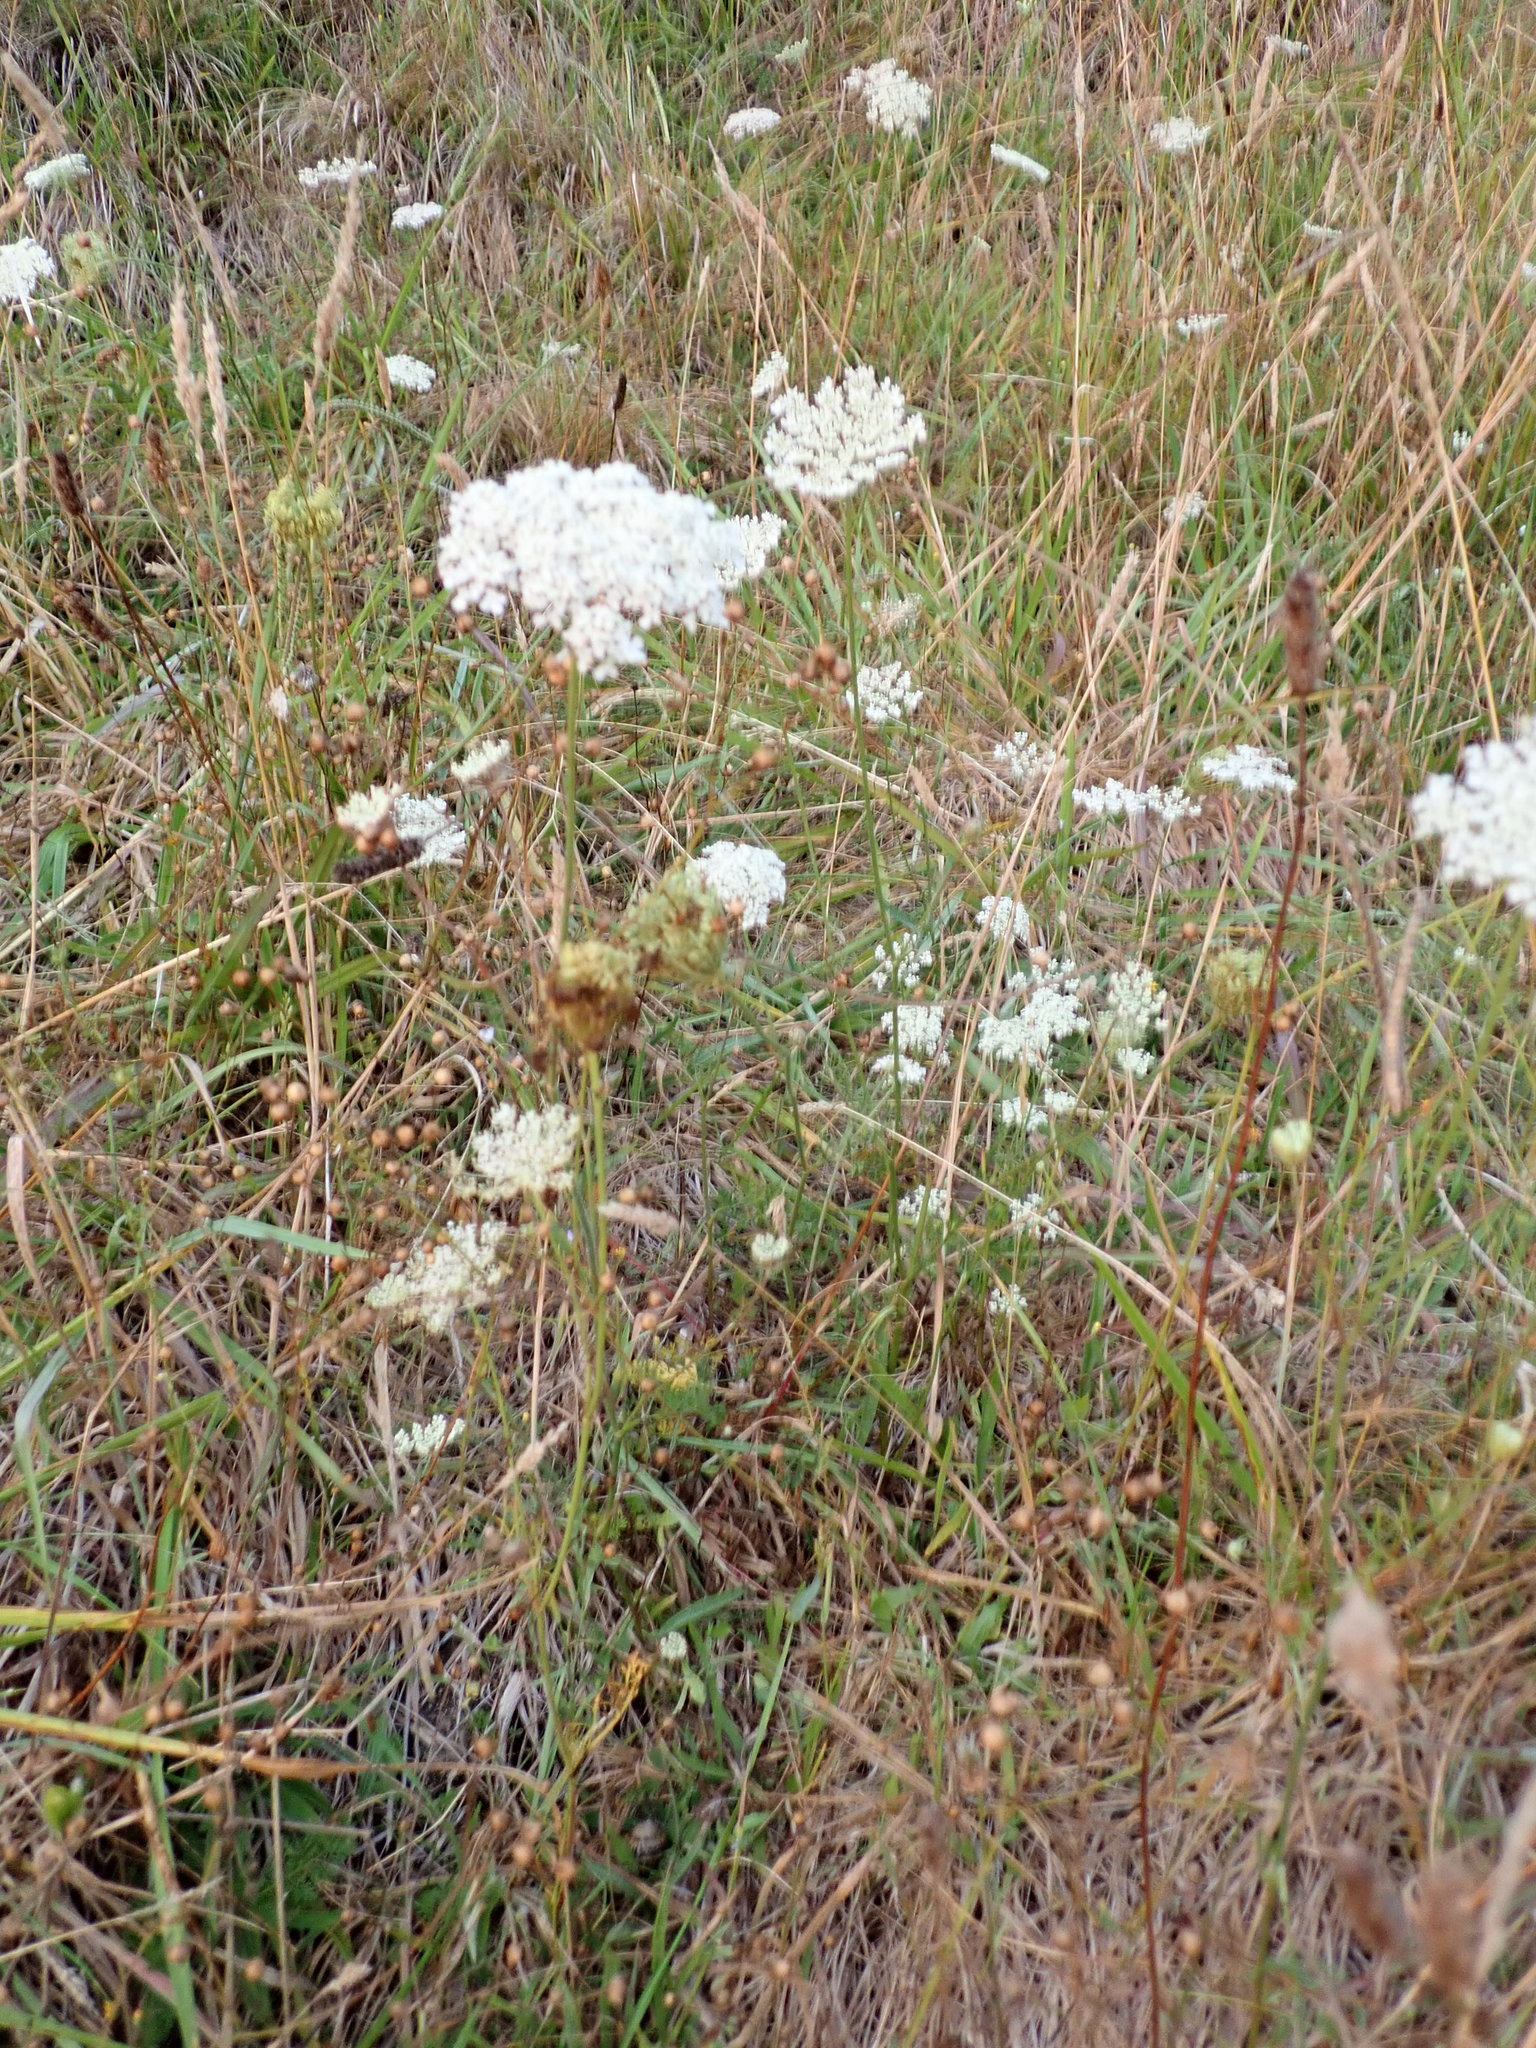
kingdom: Plantae
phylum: Tracheophyta
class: Magnoliopsida
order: Apiales
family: Apiaceae
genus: Daucus
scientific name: Daucus carota
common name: Wild carrot
